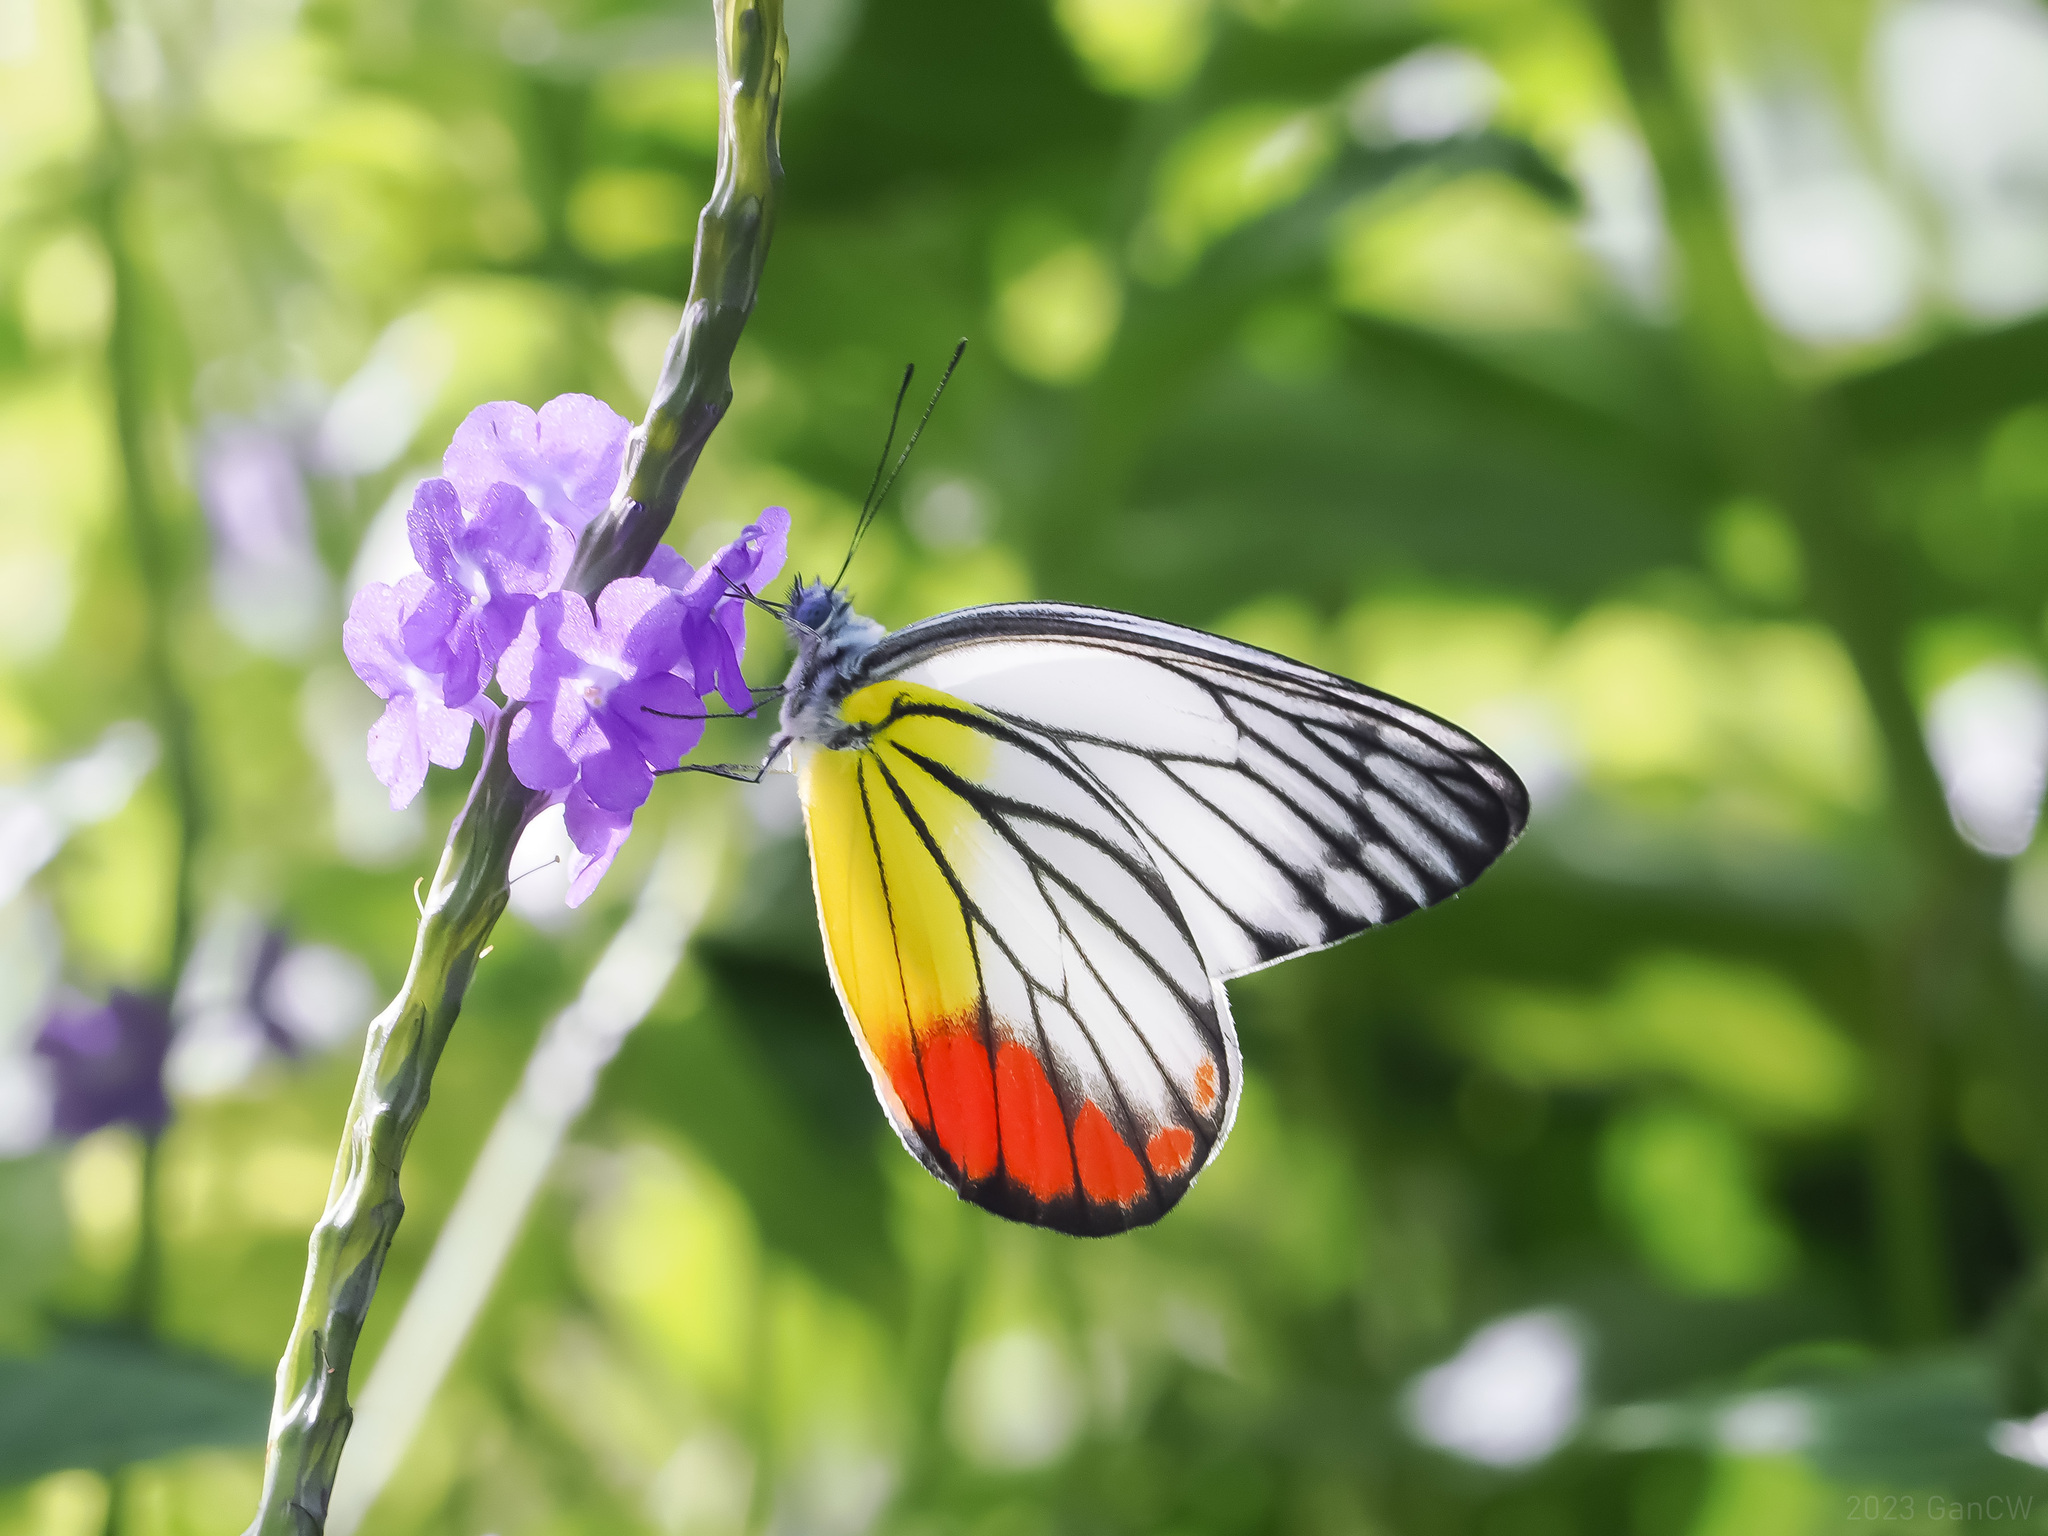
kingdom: Animalia
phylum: Arthropoda
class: Insecta
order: Lepidoptera
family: Pieridae
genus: Delias
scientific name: Delias hyparete
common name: Painted jezebel
